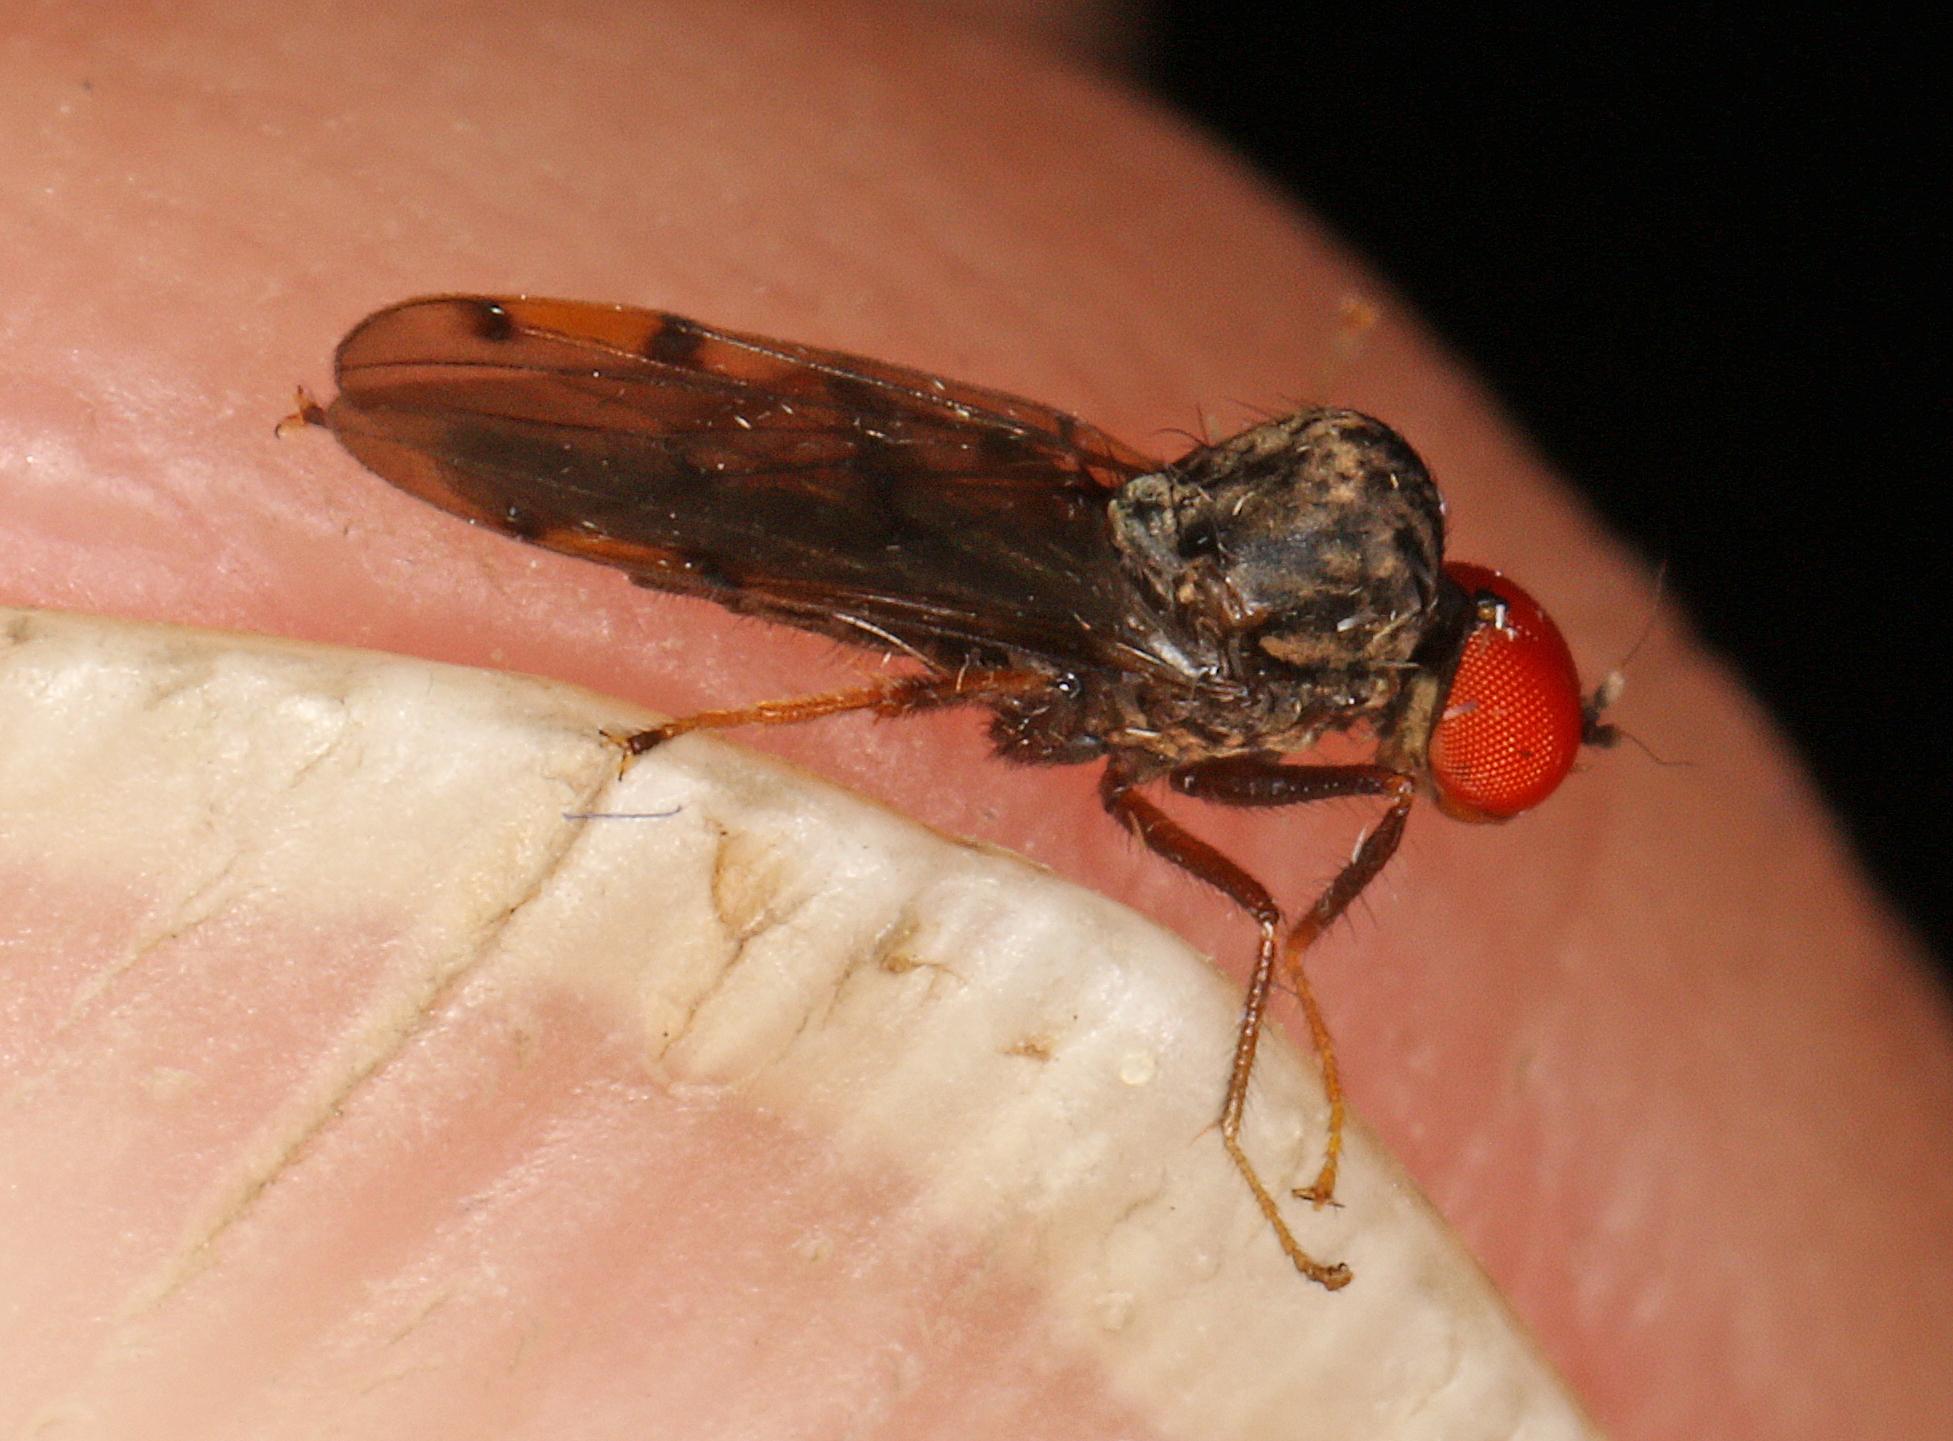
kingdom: Animalia
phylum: Arthropoda
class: Insecta
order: Diptera
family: Hybotidae
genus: Syneches
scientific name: Syneches simplex
